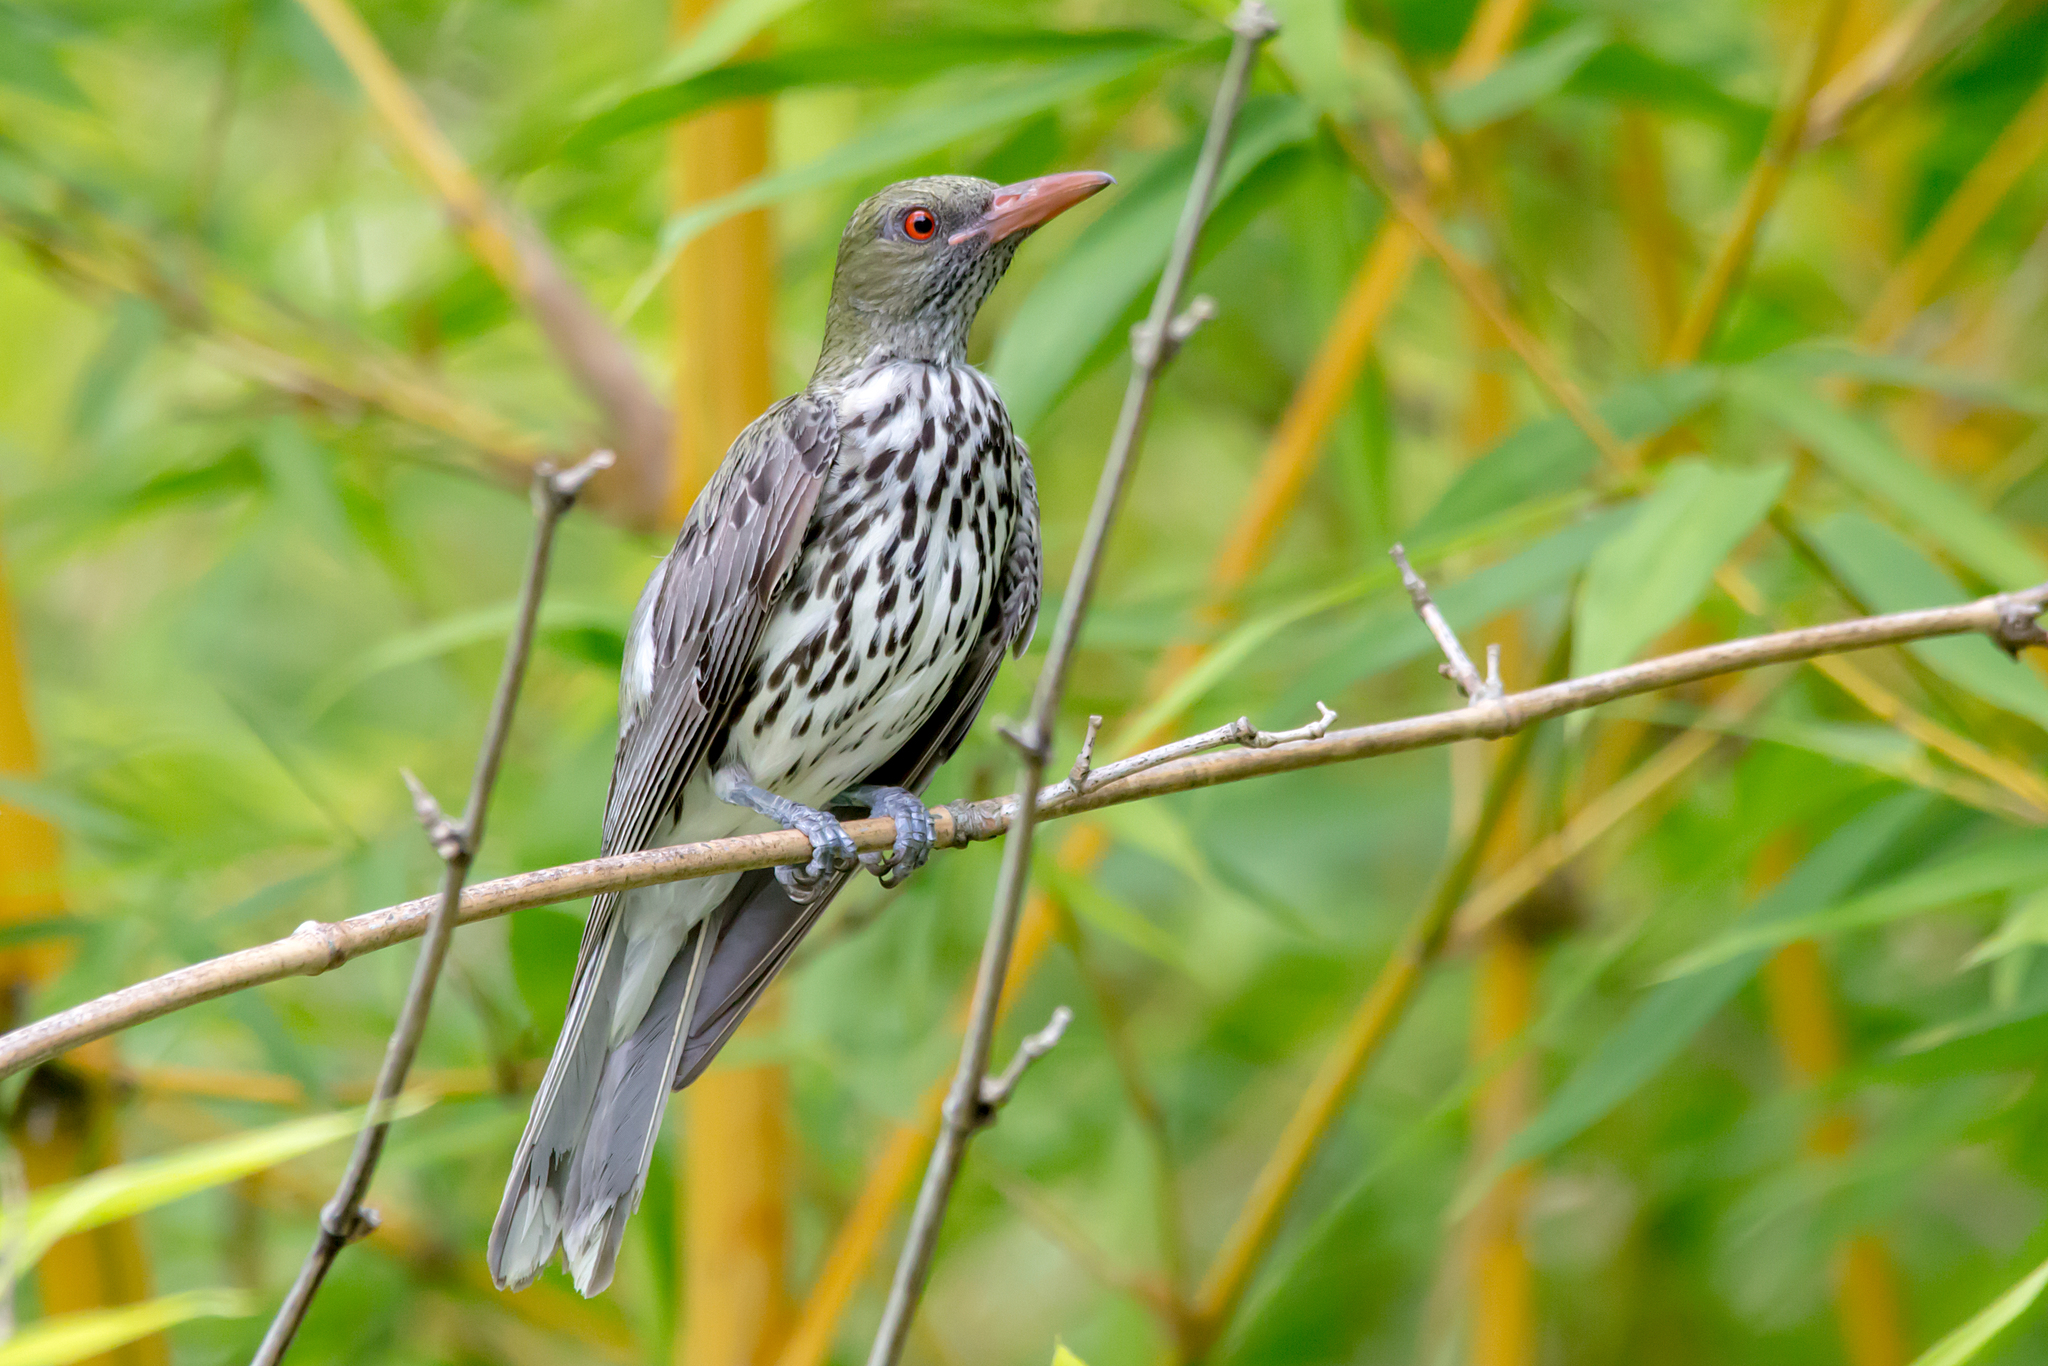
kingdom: Animalia
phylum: Chordata
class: Aves
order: Passeriformes
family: Oriolidae
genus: Oriolus
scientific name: Oriolus sagittatus
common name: Olive-backed oriole
